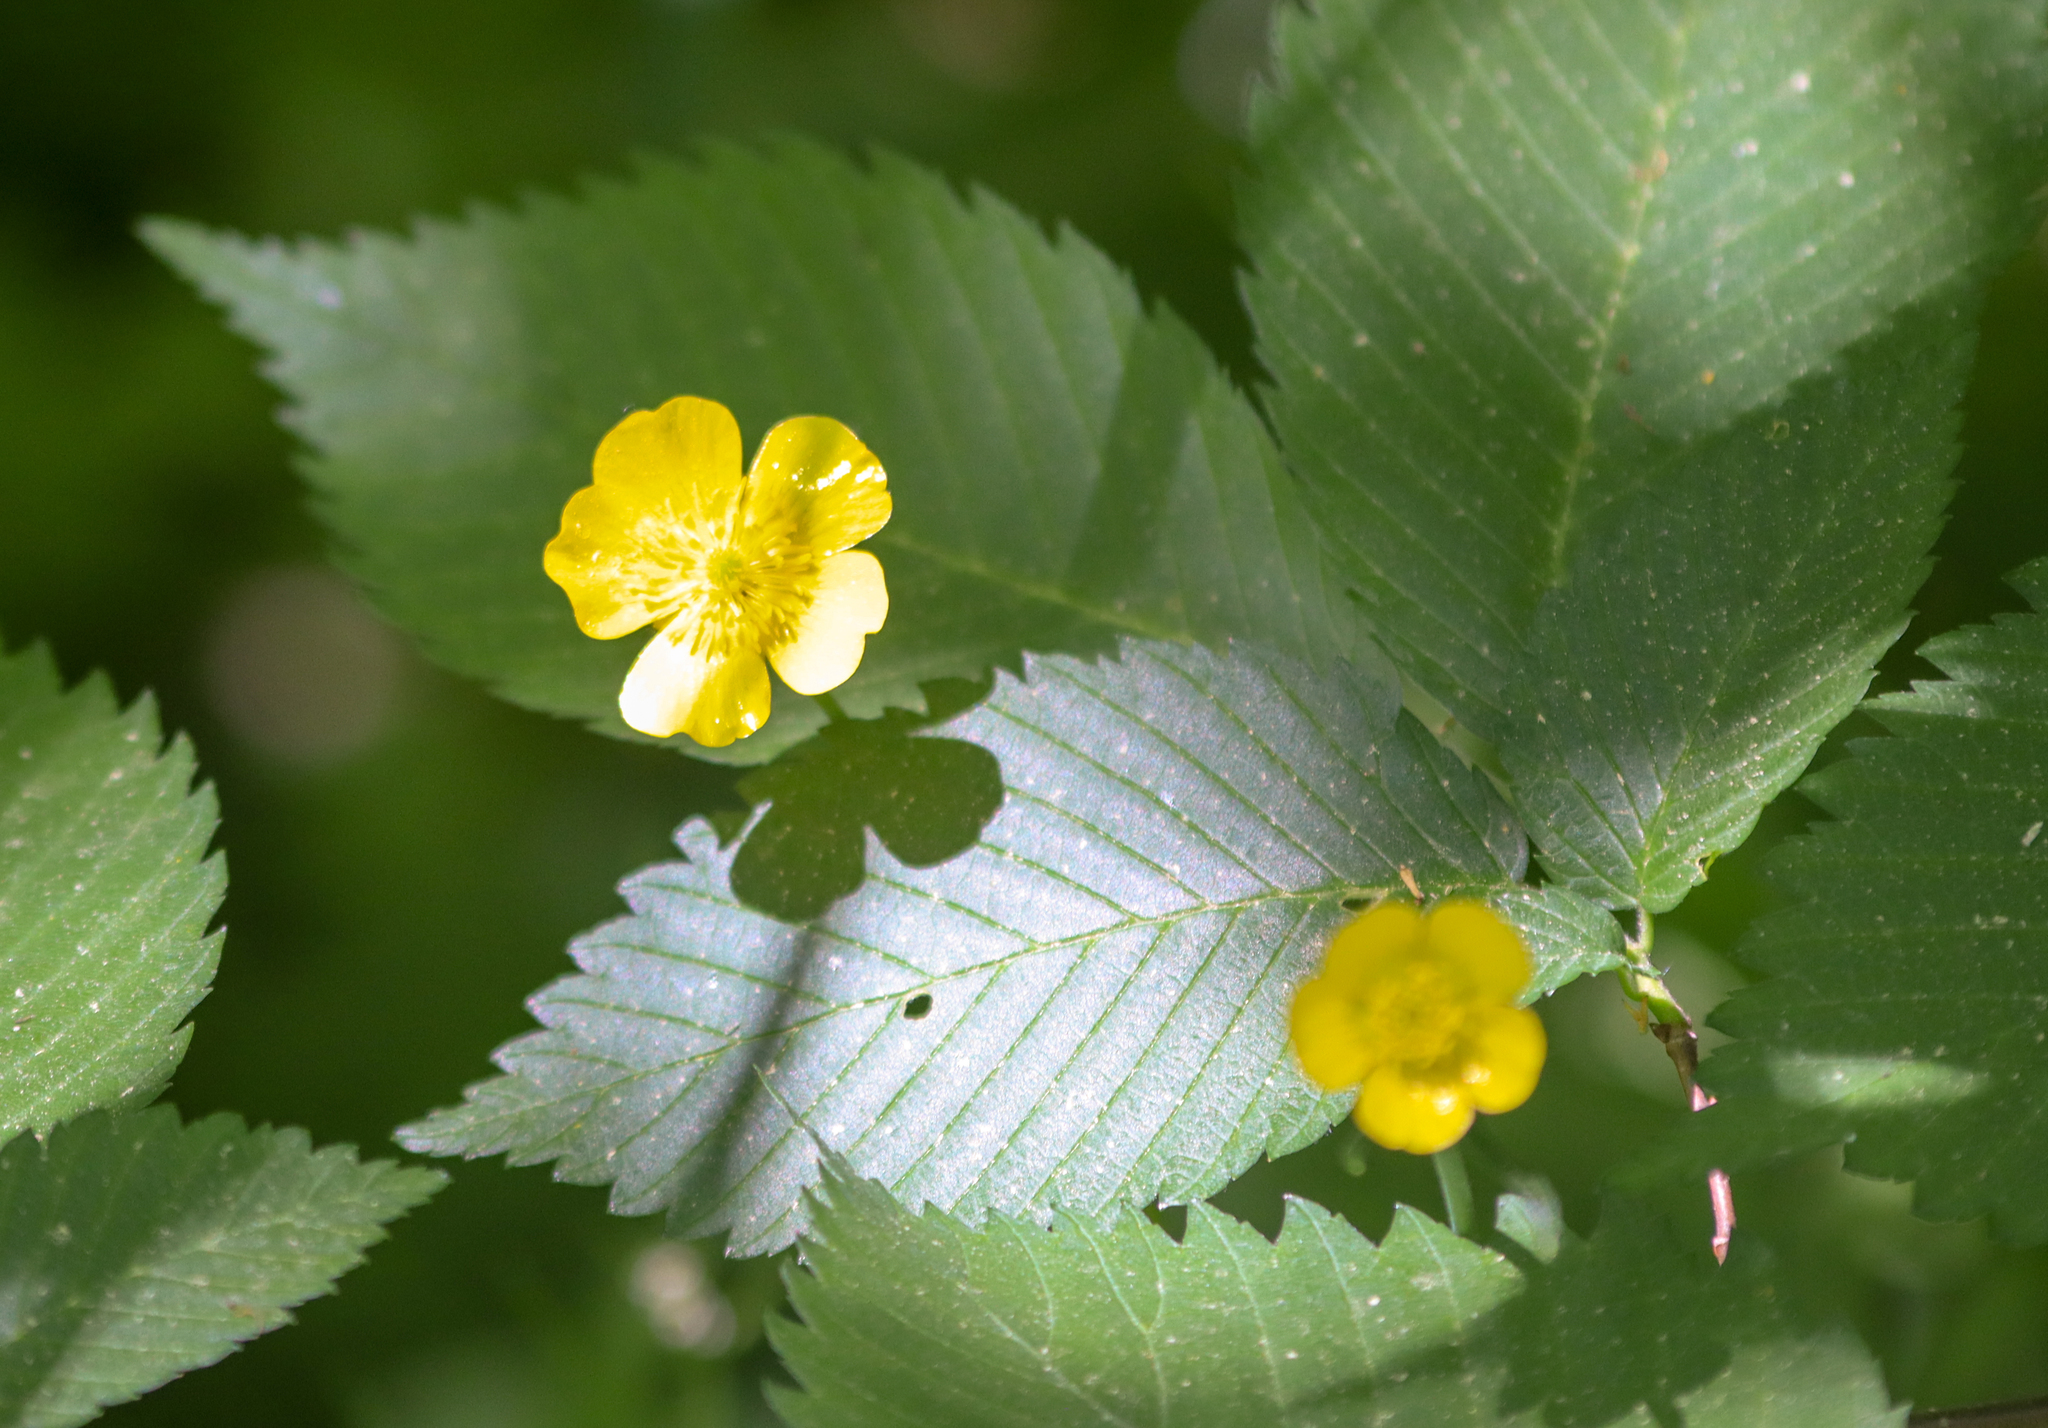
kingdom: Plantae
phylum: Tracheophyta
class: Magnoliopsida
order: Ranunculales
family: Ranunculaceae
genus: Ranunculus
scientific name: Ranunculus acris
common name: Meadow buttercup
